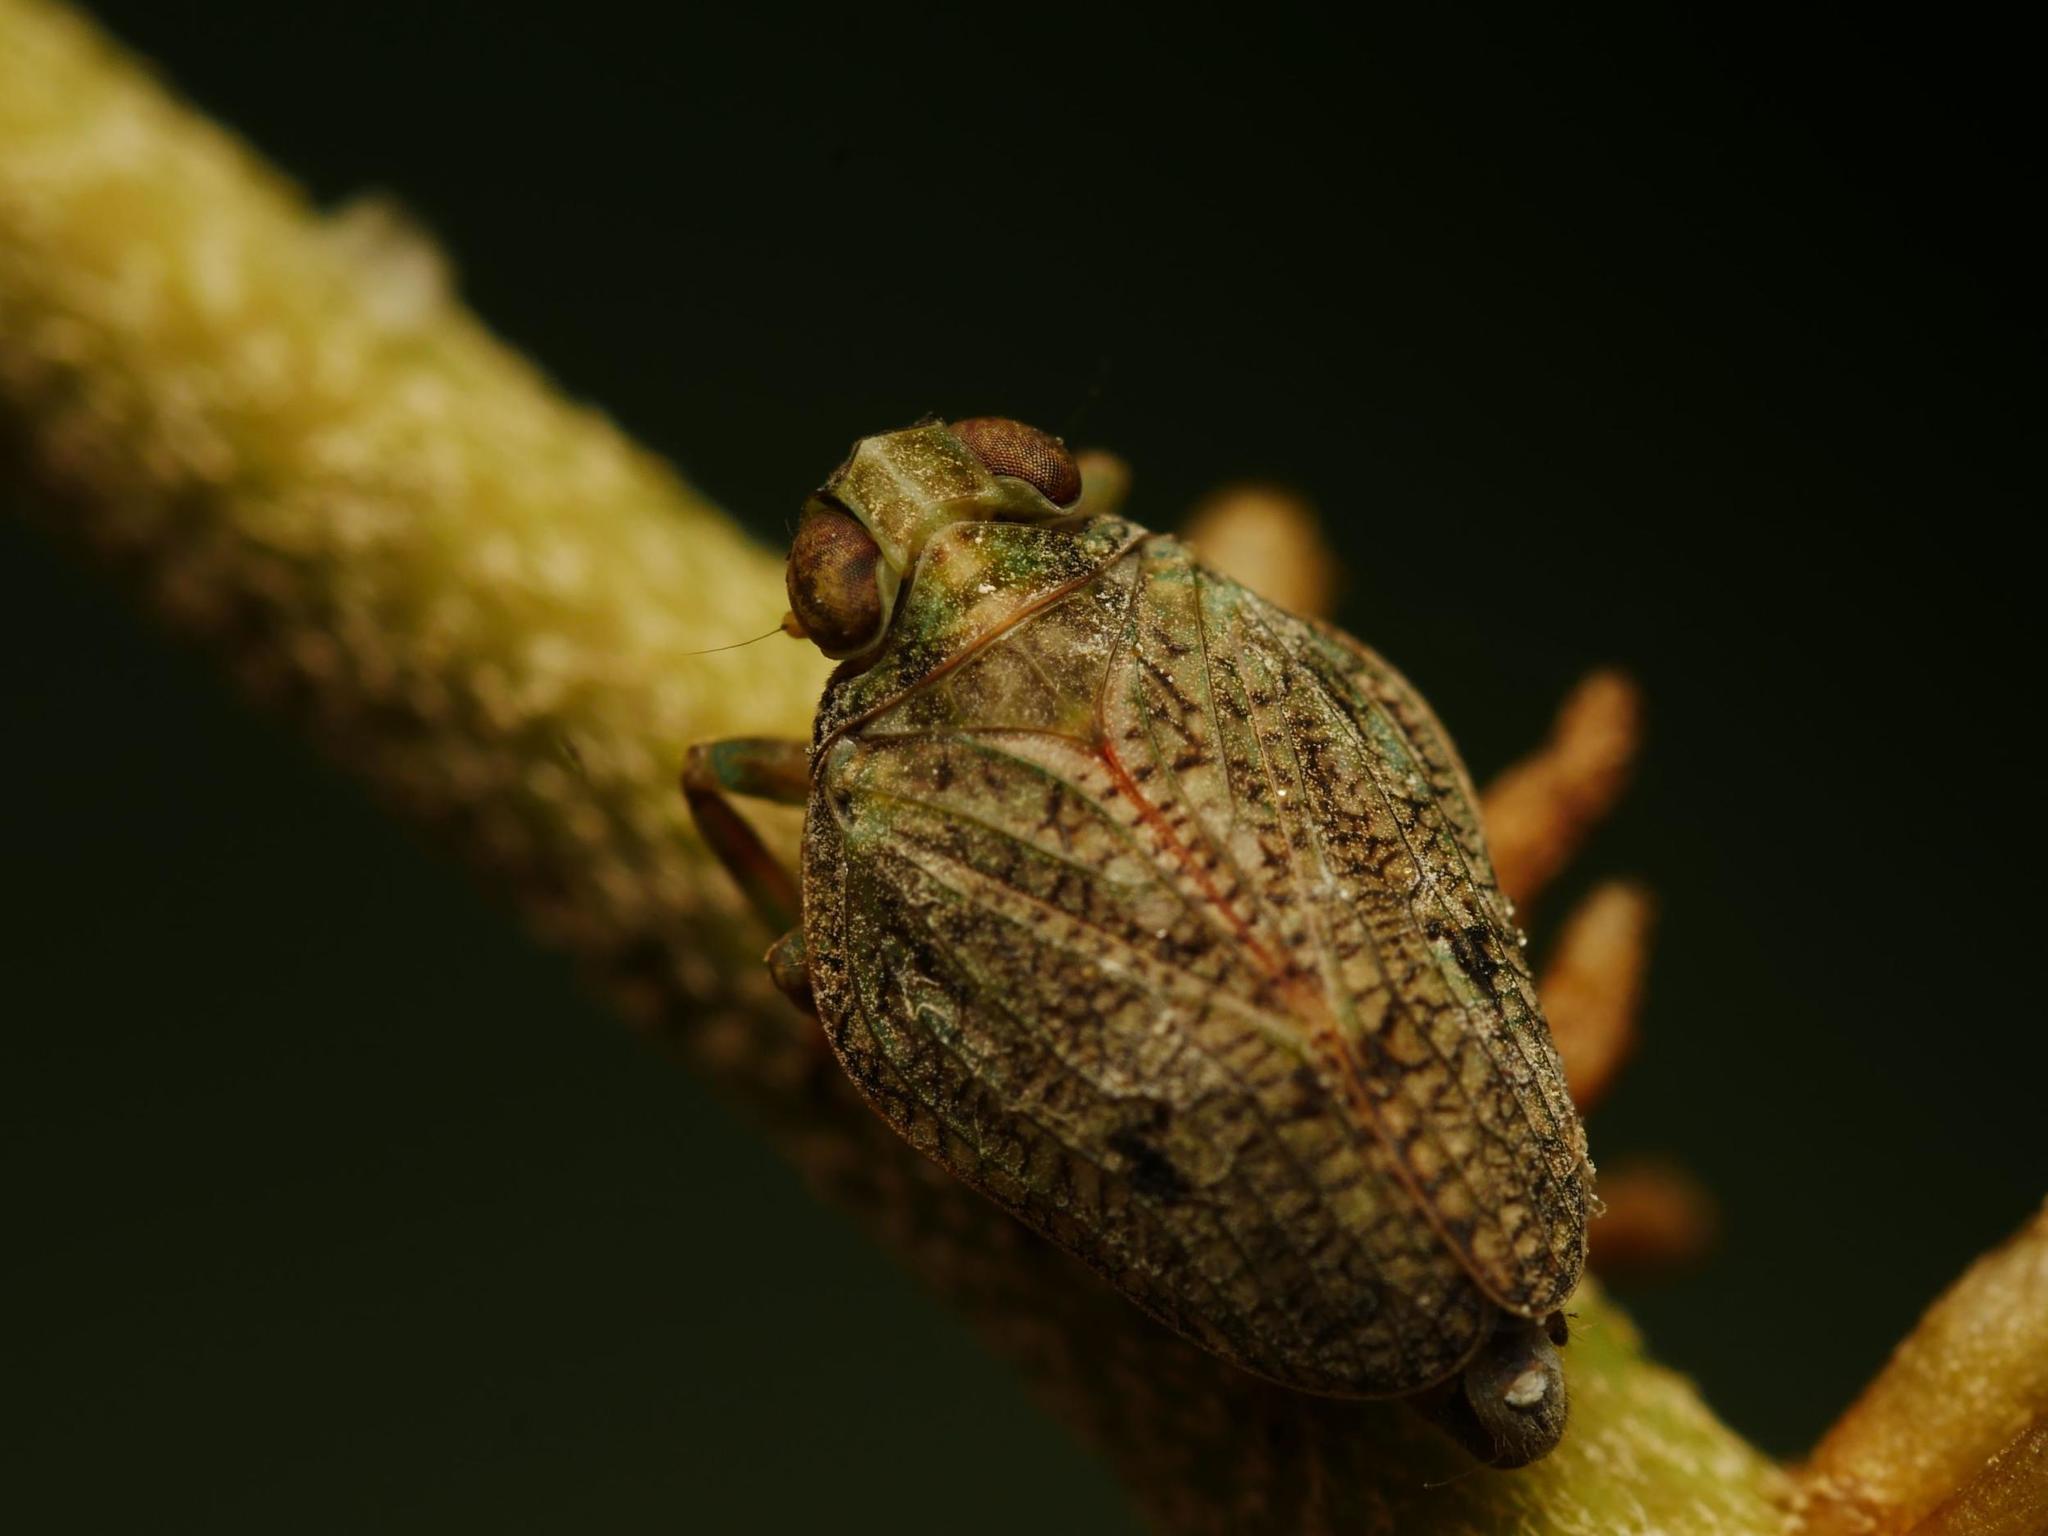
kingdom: Animalia
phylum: Arthropoda
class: Insecta
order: Hemiptera
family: Issidae
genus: Issus
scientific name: Issus coleoptratus
